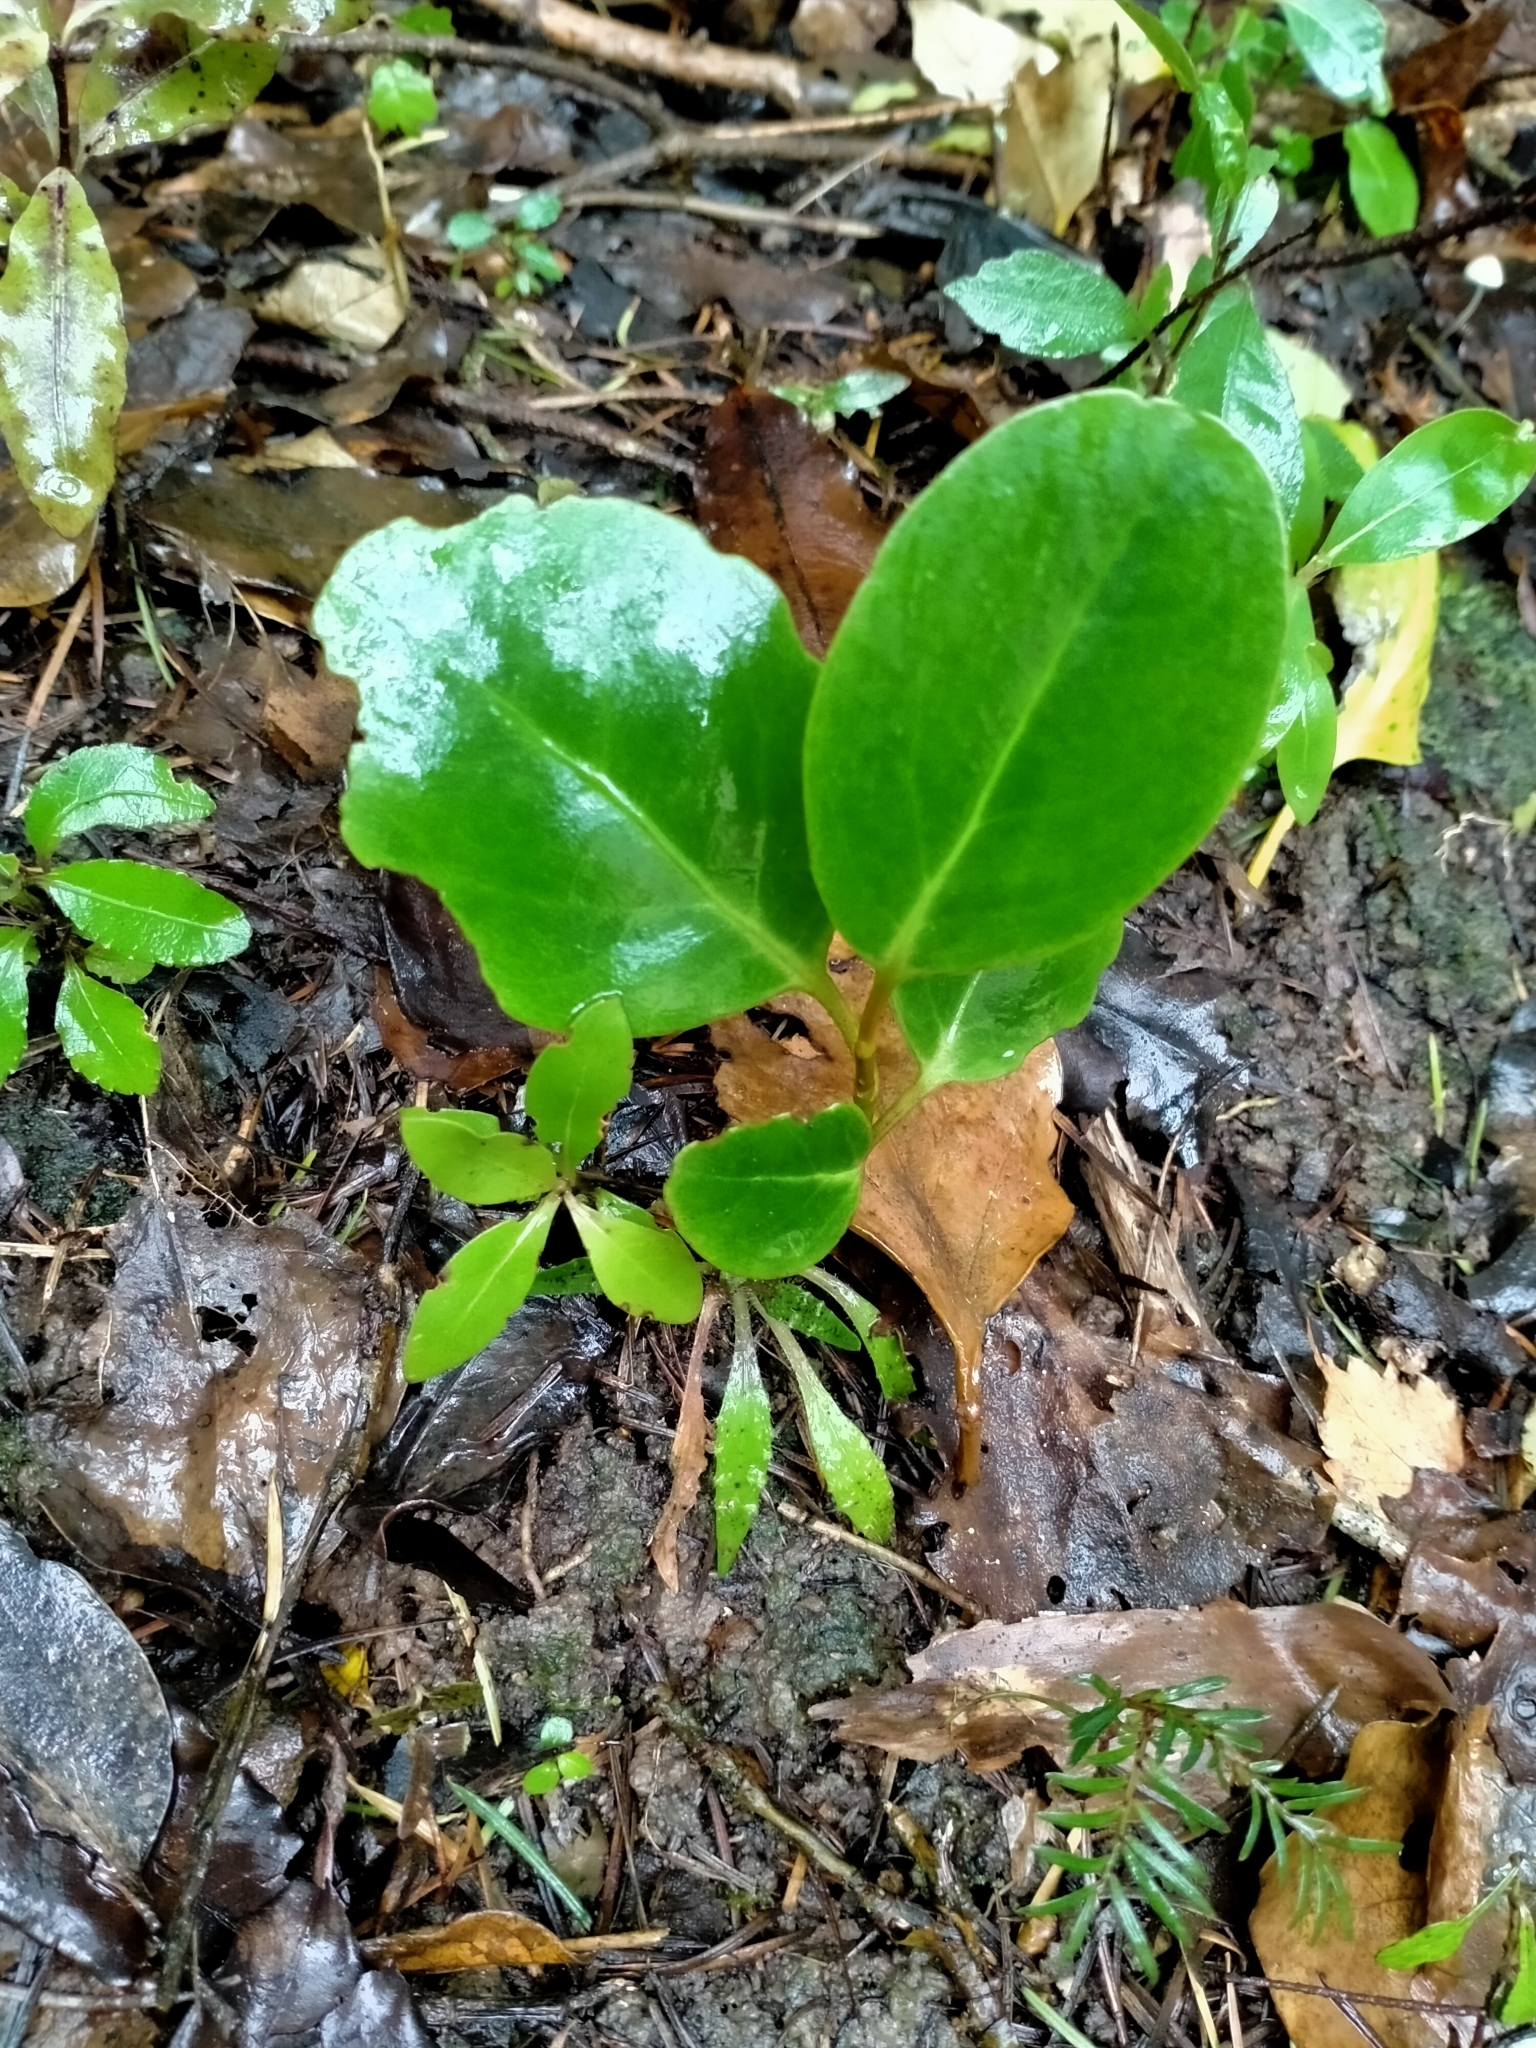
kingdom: Plantae
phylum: Tracheophyta
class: Magnoliopsida
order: Apiales
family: Griseliniaceae
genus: Griselinia
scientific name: Griselinia littoralis
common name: New zealand broadleaf
